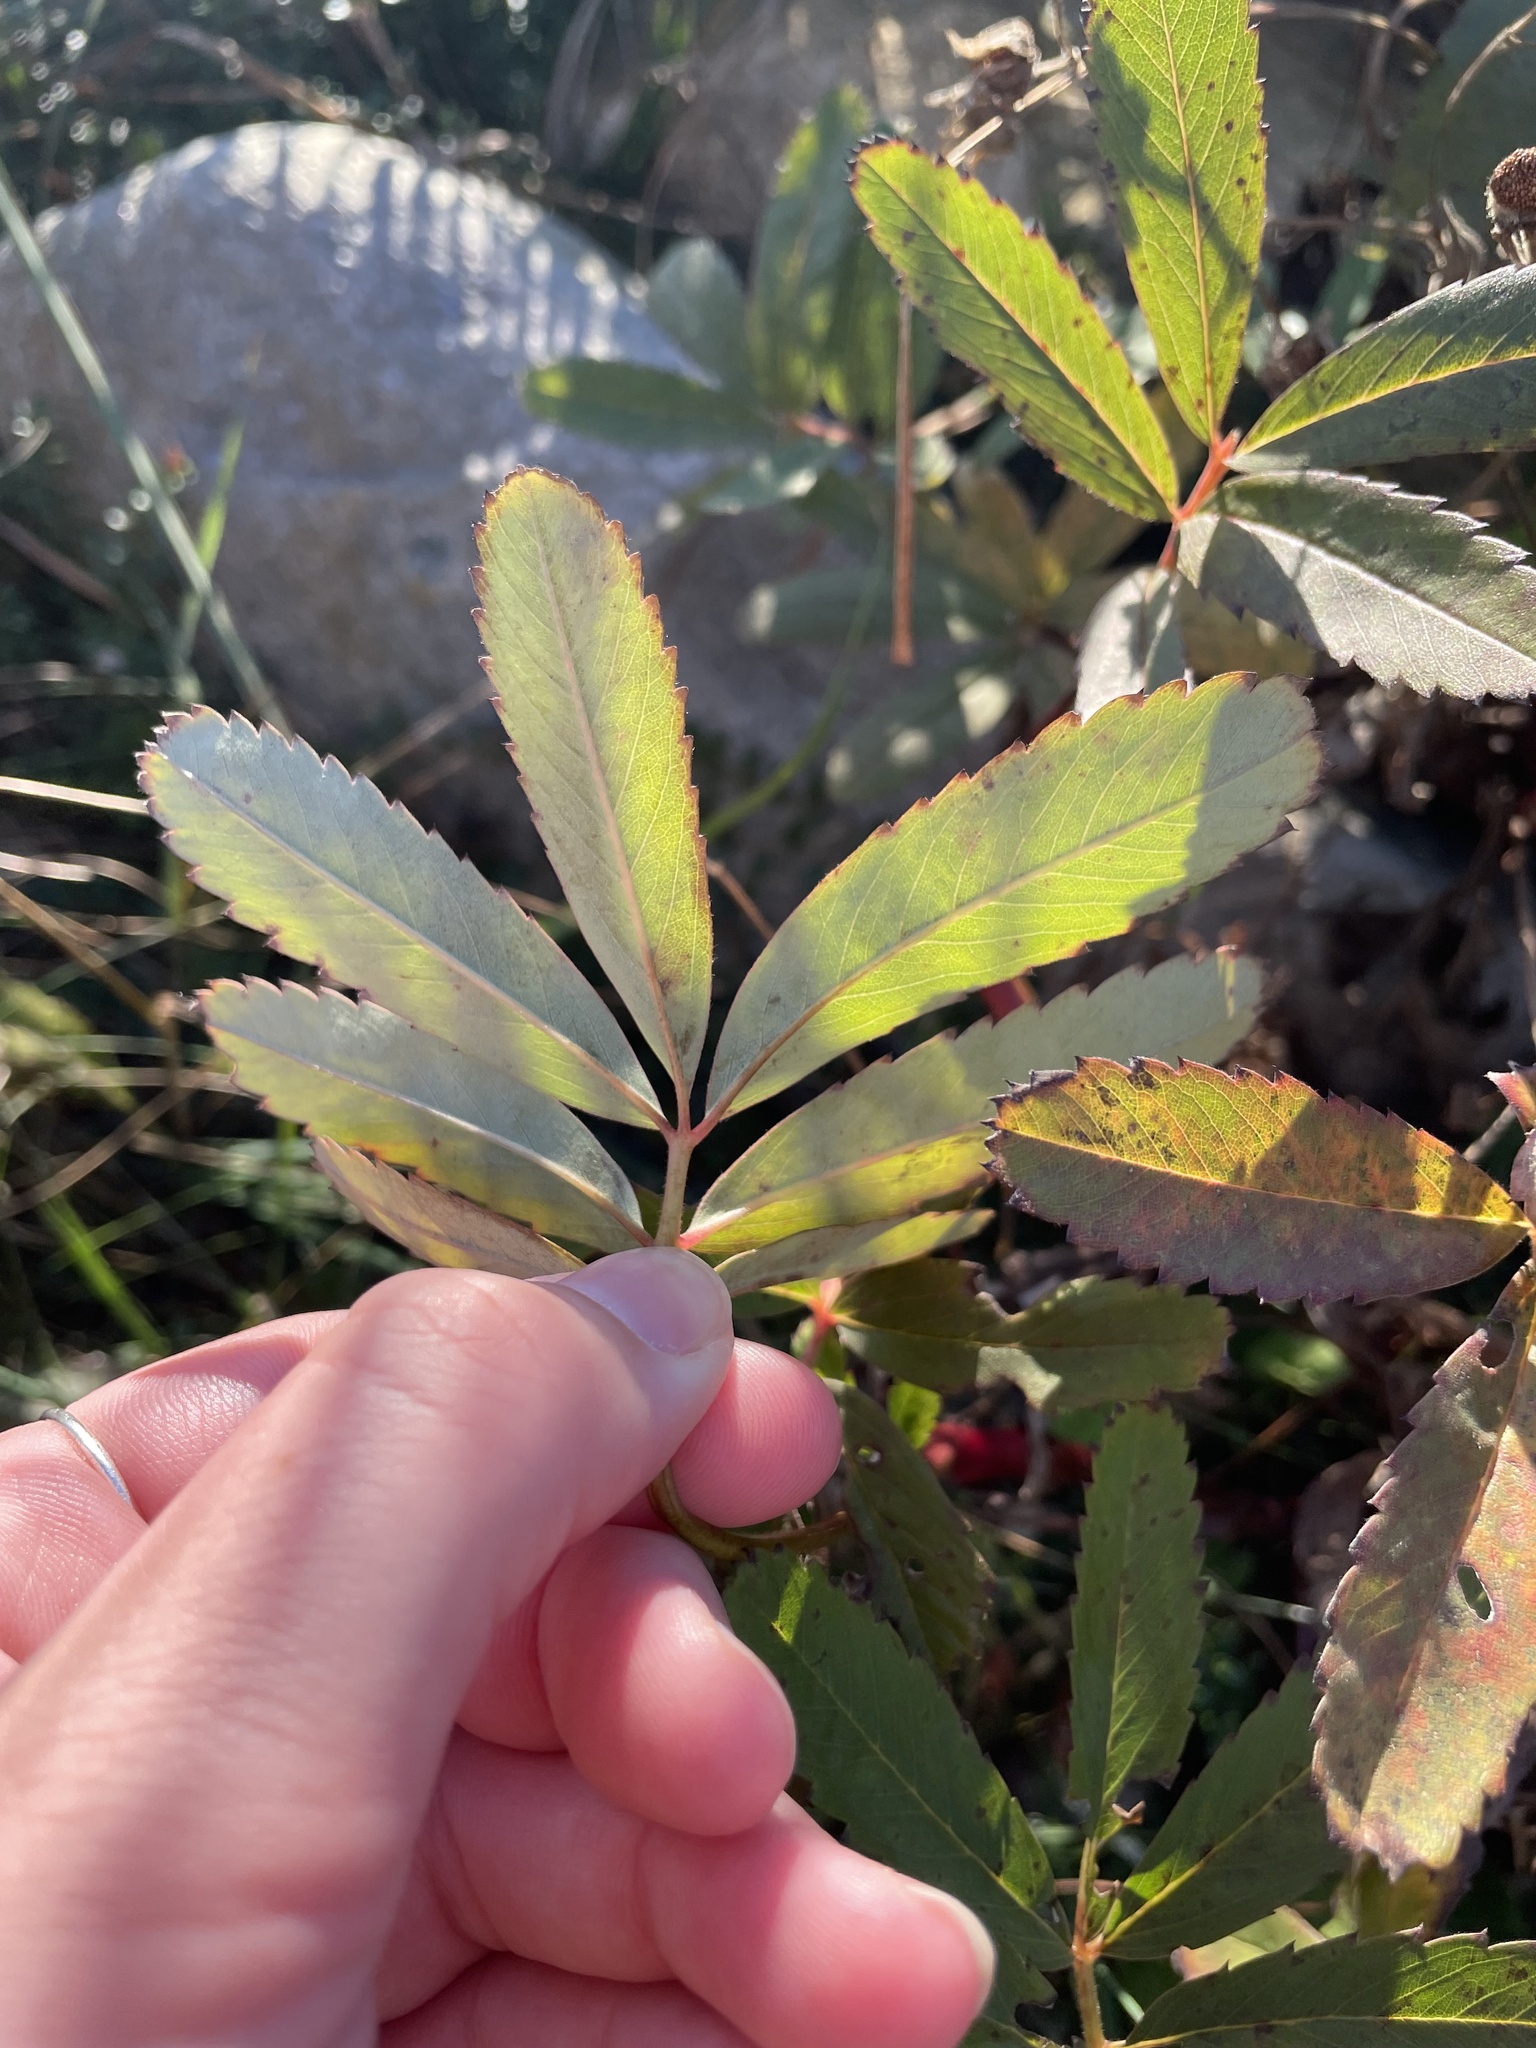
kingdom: Plantae
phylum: Tracheophyta
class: Magnoliopsida
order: Rosales
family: Rosaceae
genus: Comarum
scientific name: Comarum palustre
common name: Marsh cinquefoil
